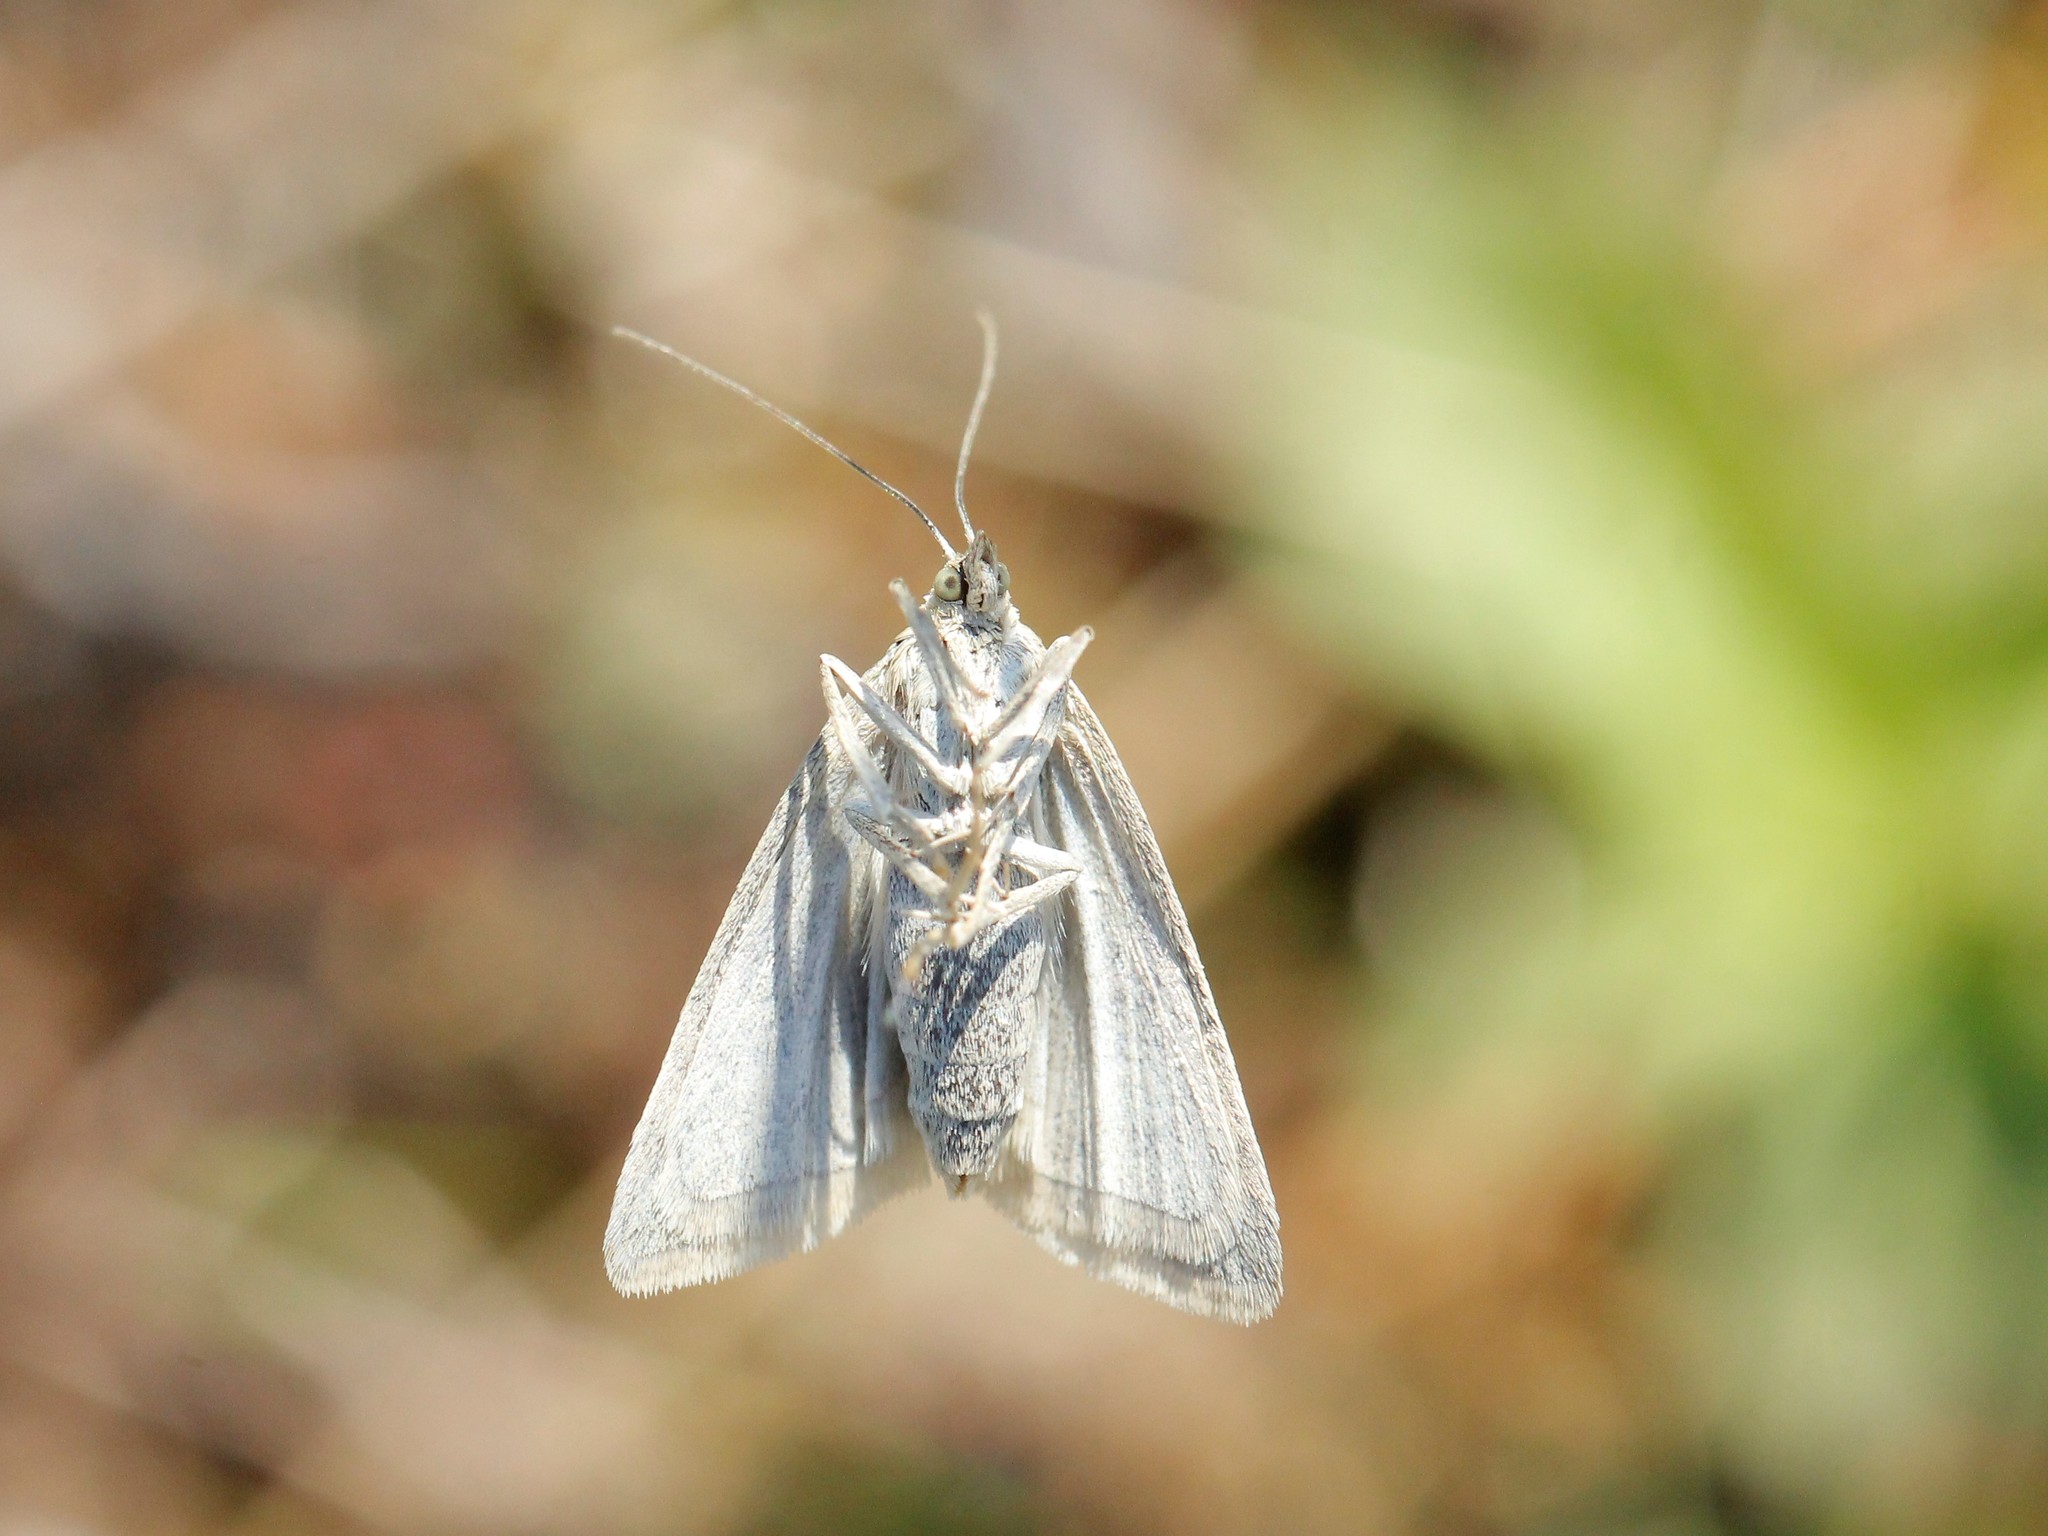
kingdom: Animalia
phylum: Arthropoda
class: Insecta
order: Lepidoptera
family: Crambidae
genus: Udea
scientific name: Udea
